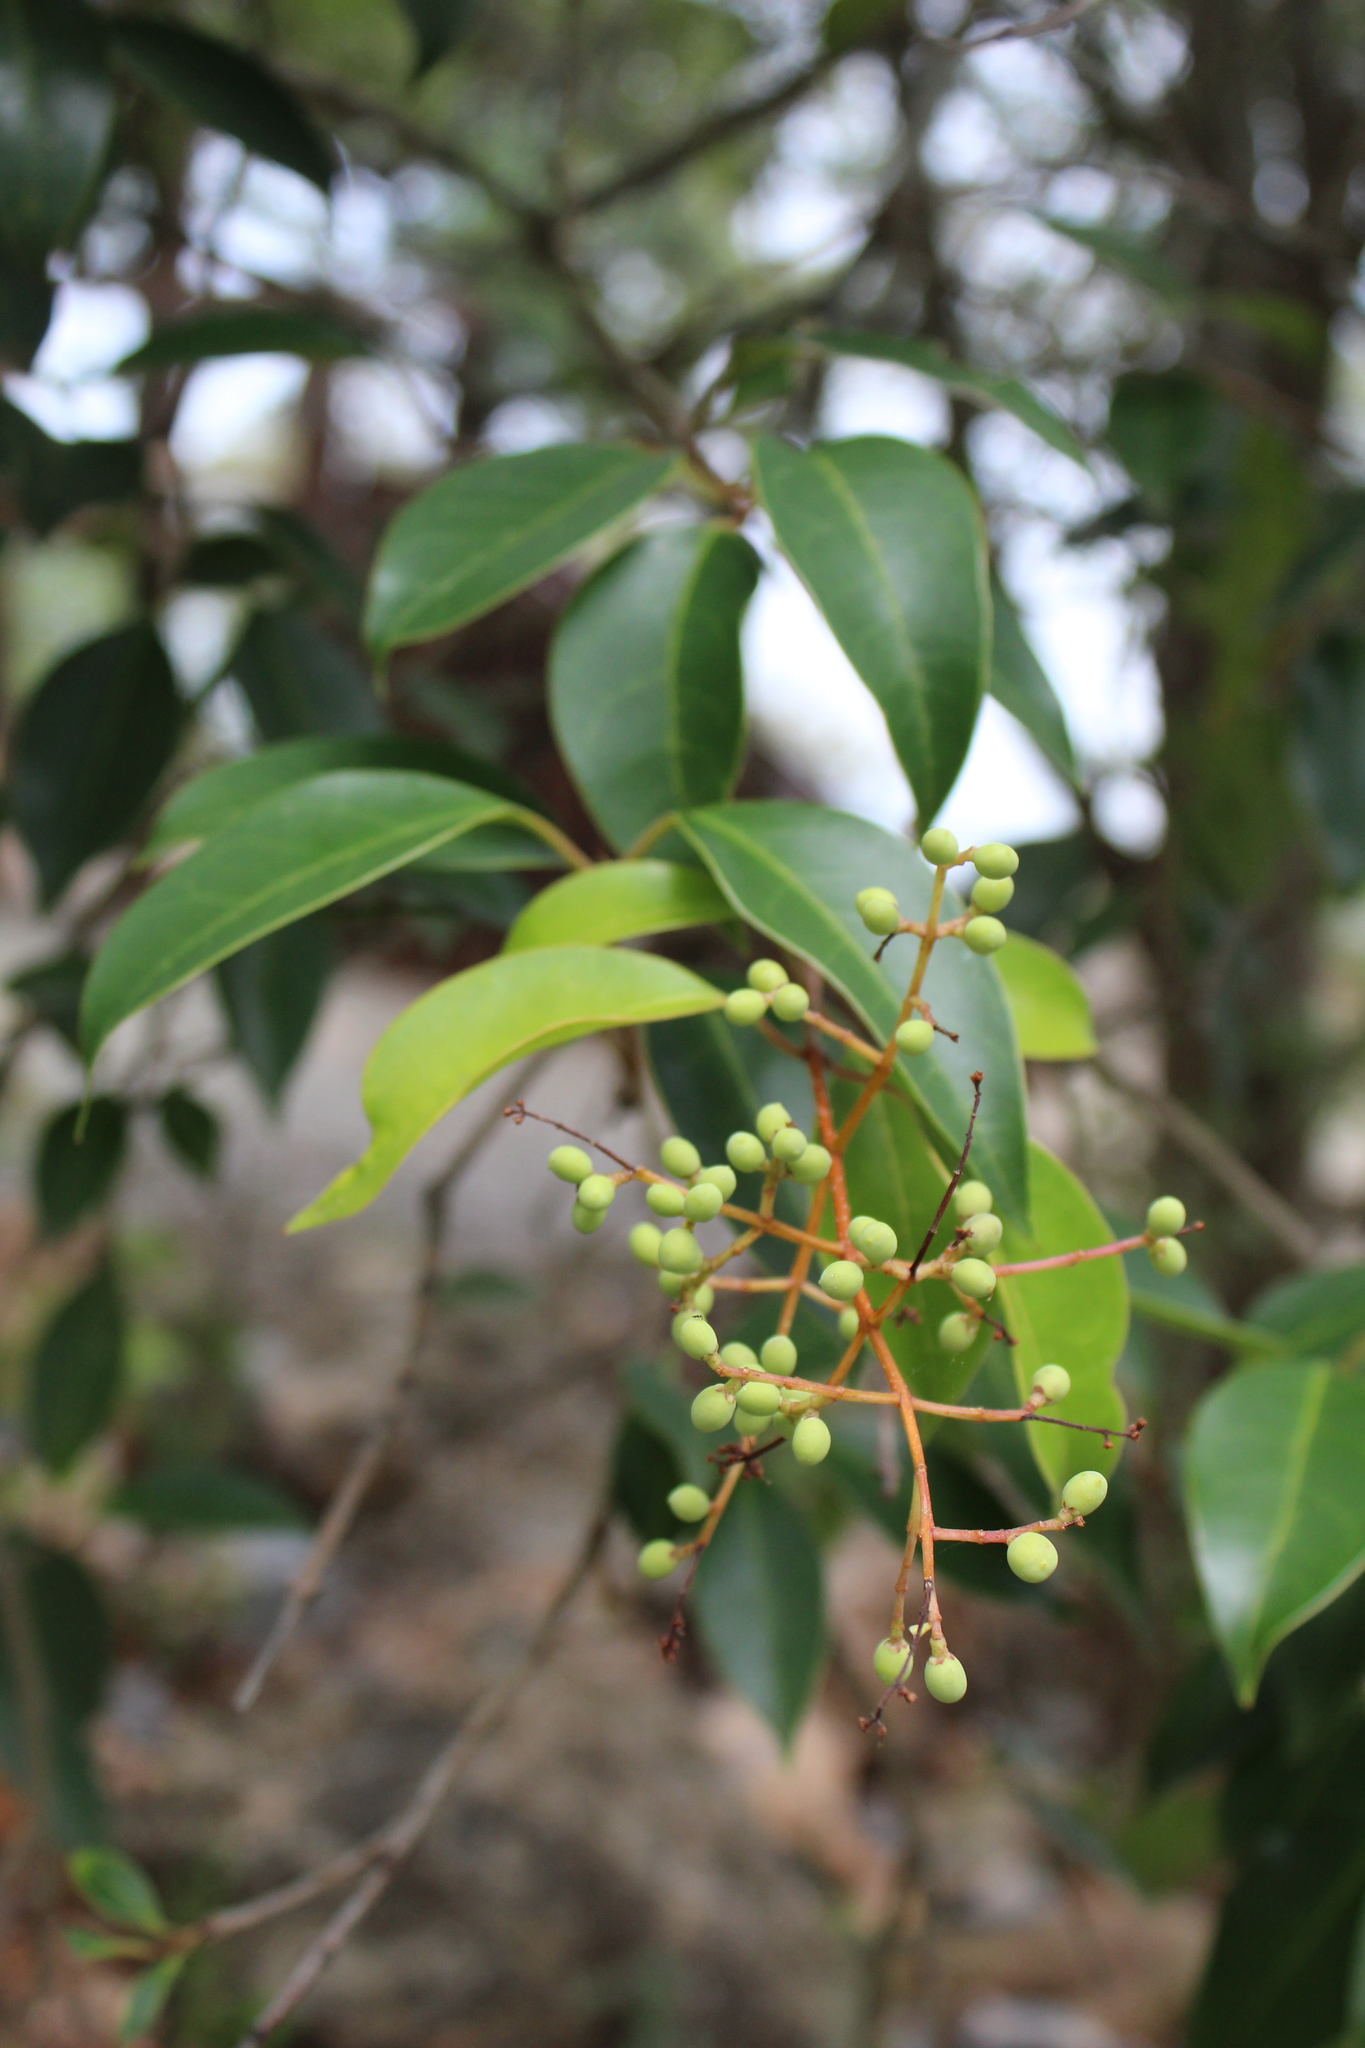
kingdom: Plantae
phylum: Tracheophyta
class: Magnoliopsida
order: Lamiales
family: Oleaceae
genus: Ligustrum
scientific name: Ligustrum lucidum
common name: Glossy privet
